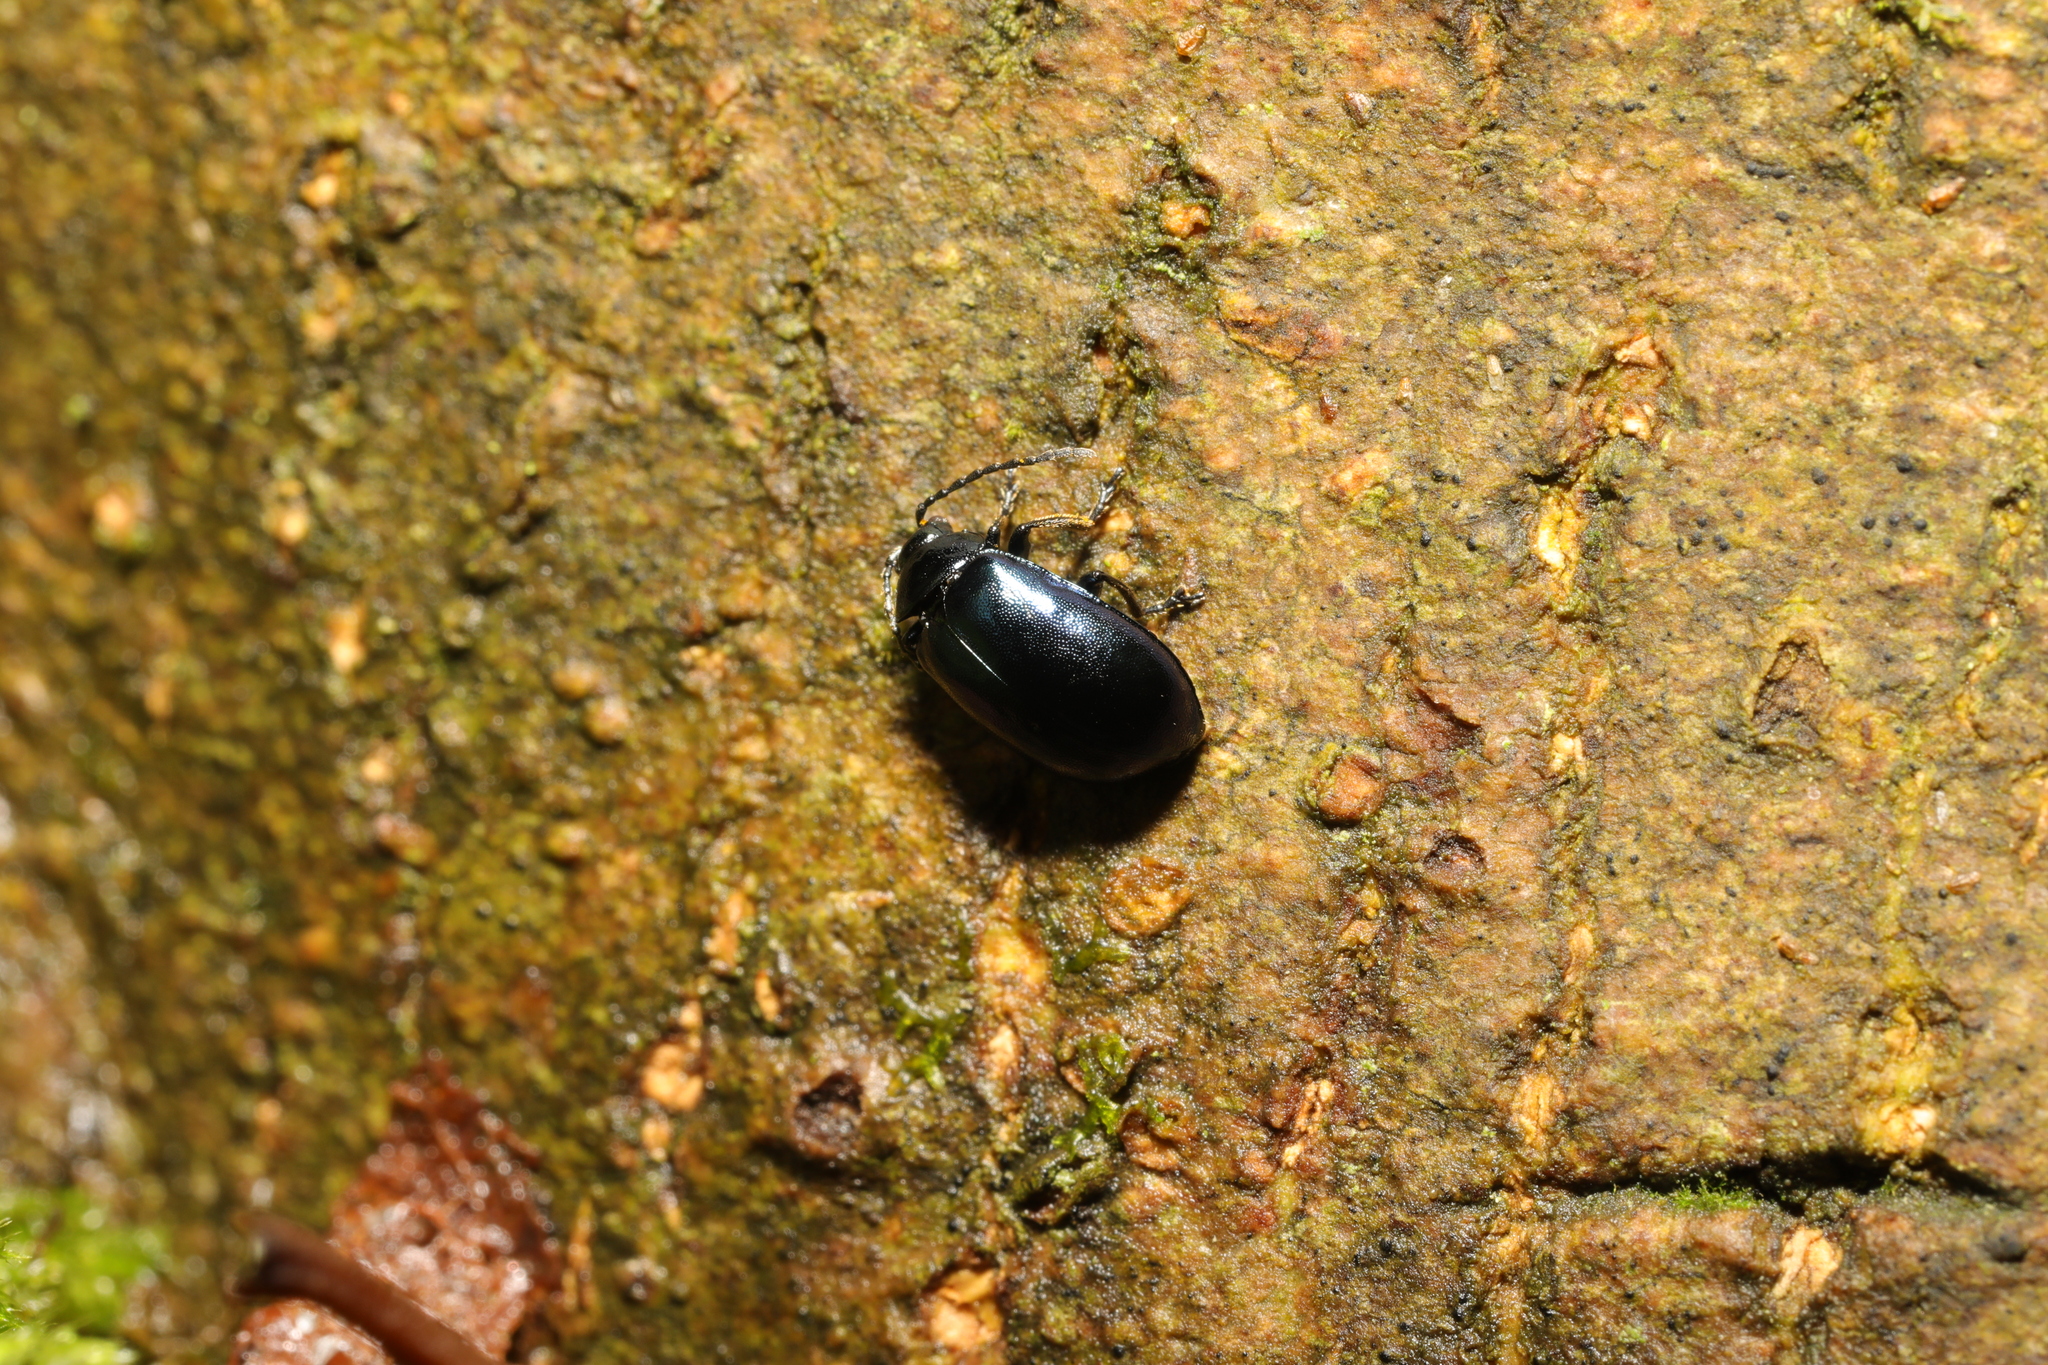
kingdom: Animalia
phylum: Arthropoda
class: Insecta
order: Coleoptera
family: Chrysomelidae
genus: Agelastica
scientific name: Agelastica alni
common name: Alder leaf beetle
